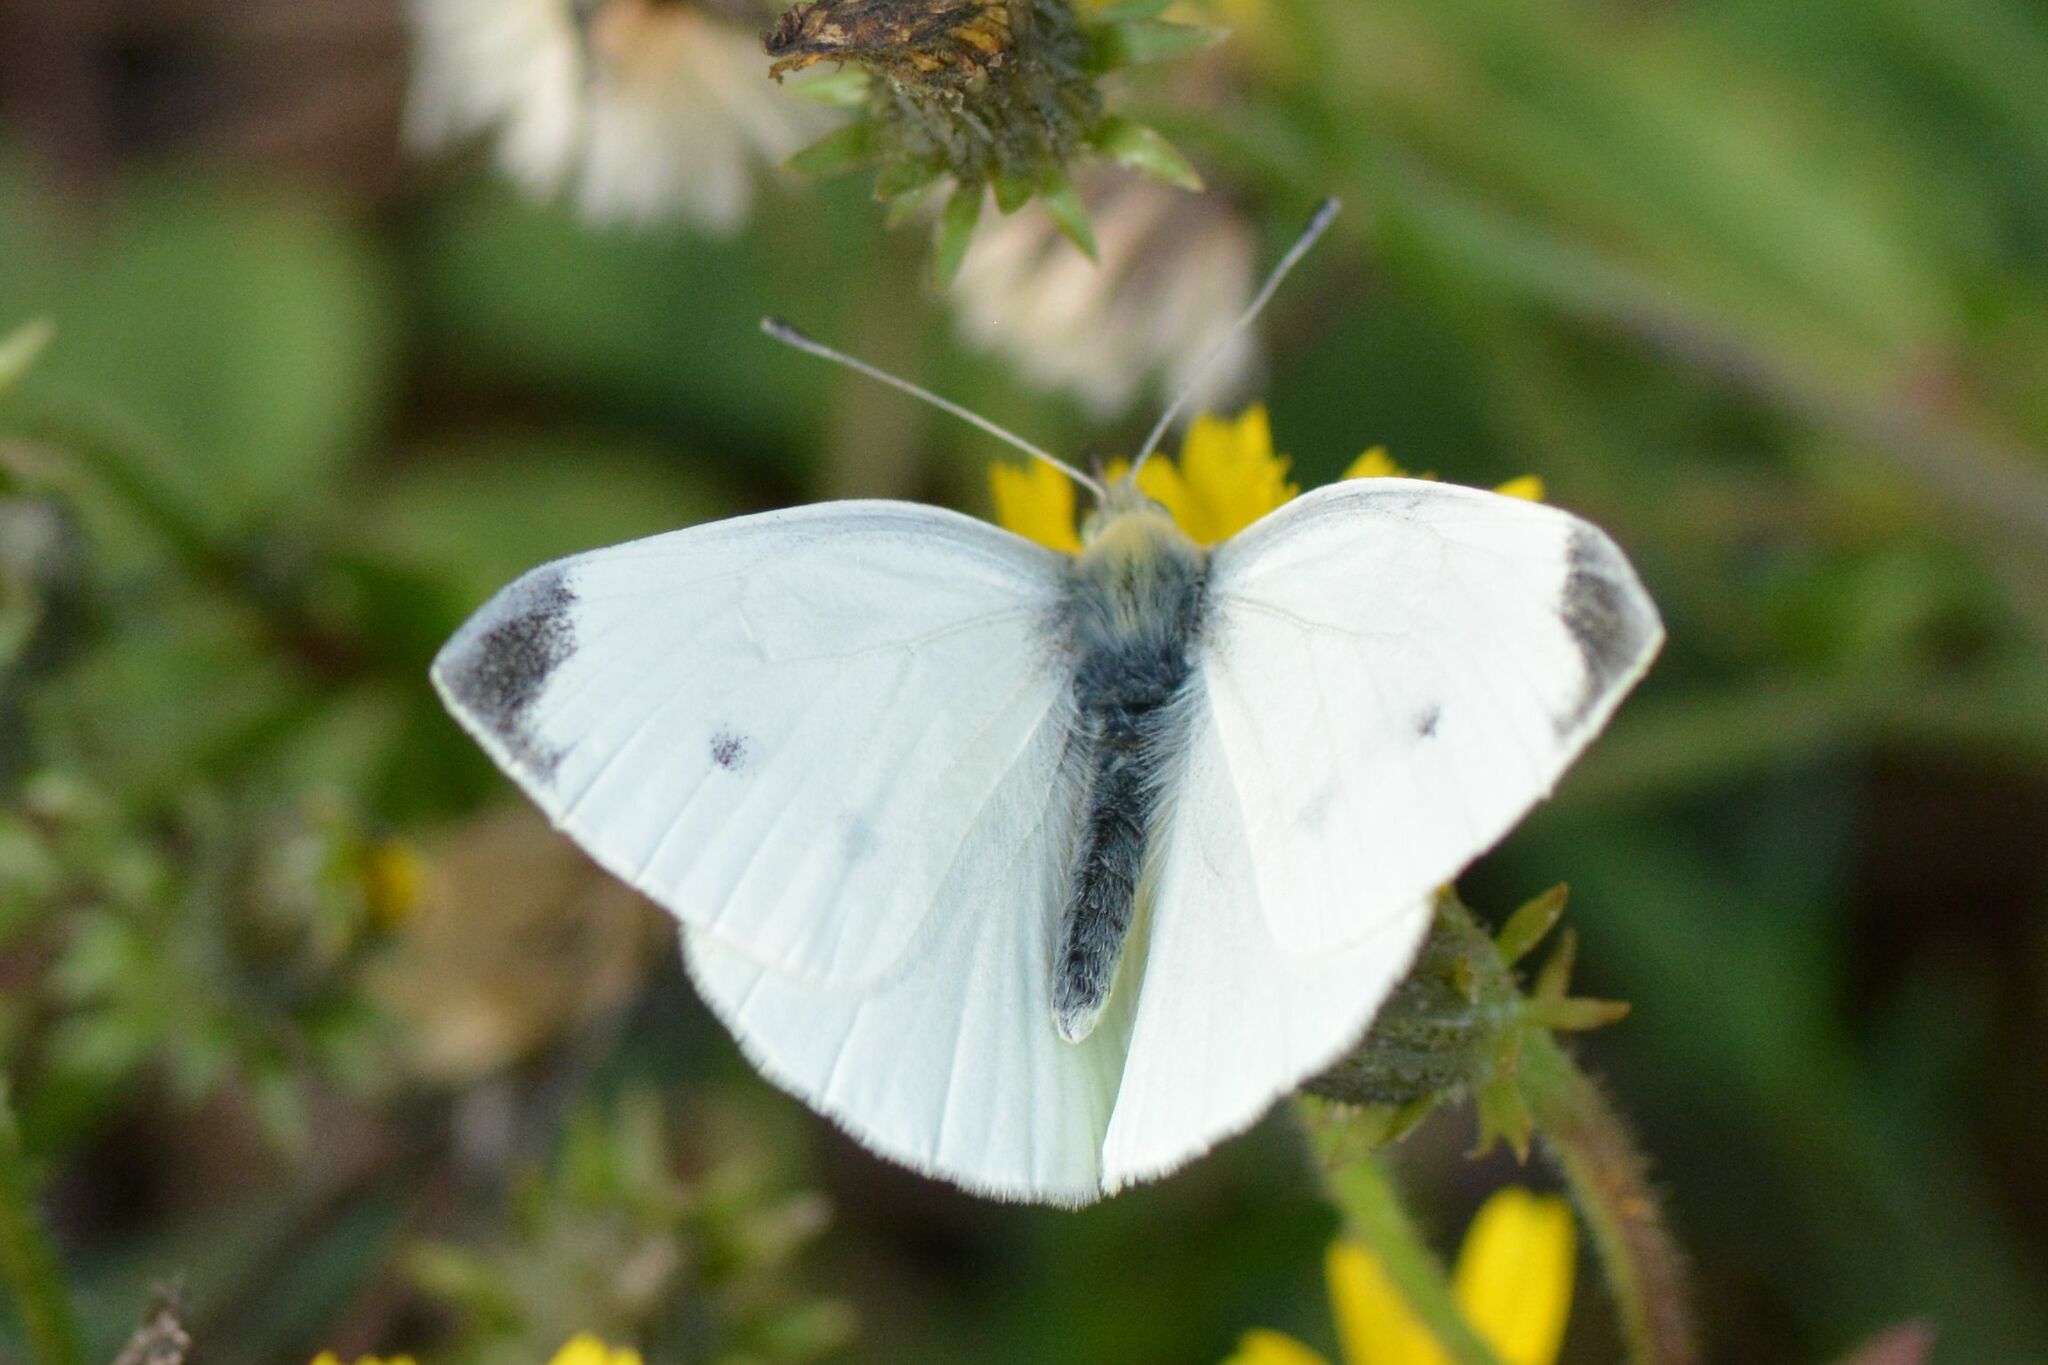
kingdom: Animalia
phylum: Arthropoda
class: Insecta
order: Lepidoptera
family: Pieridae
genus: Pieris
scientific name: Pieris rapae
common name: Small white
